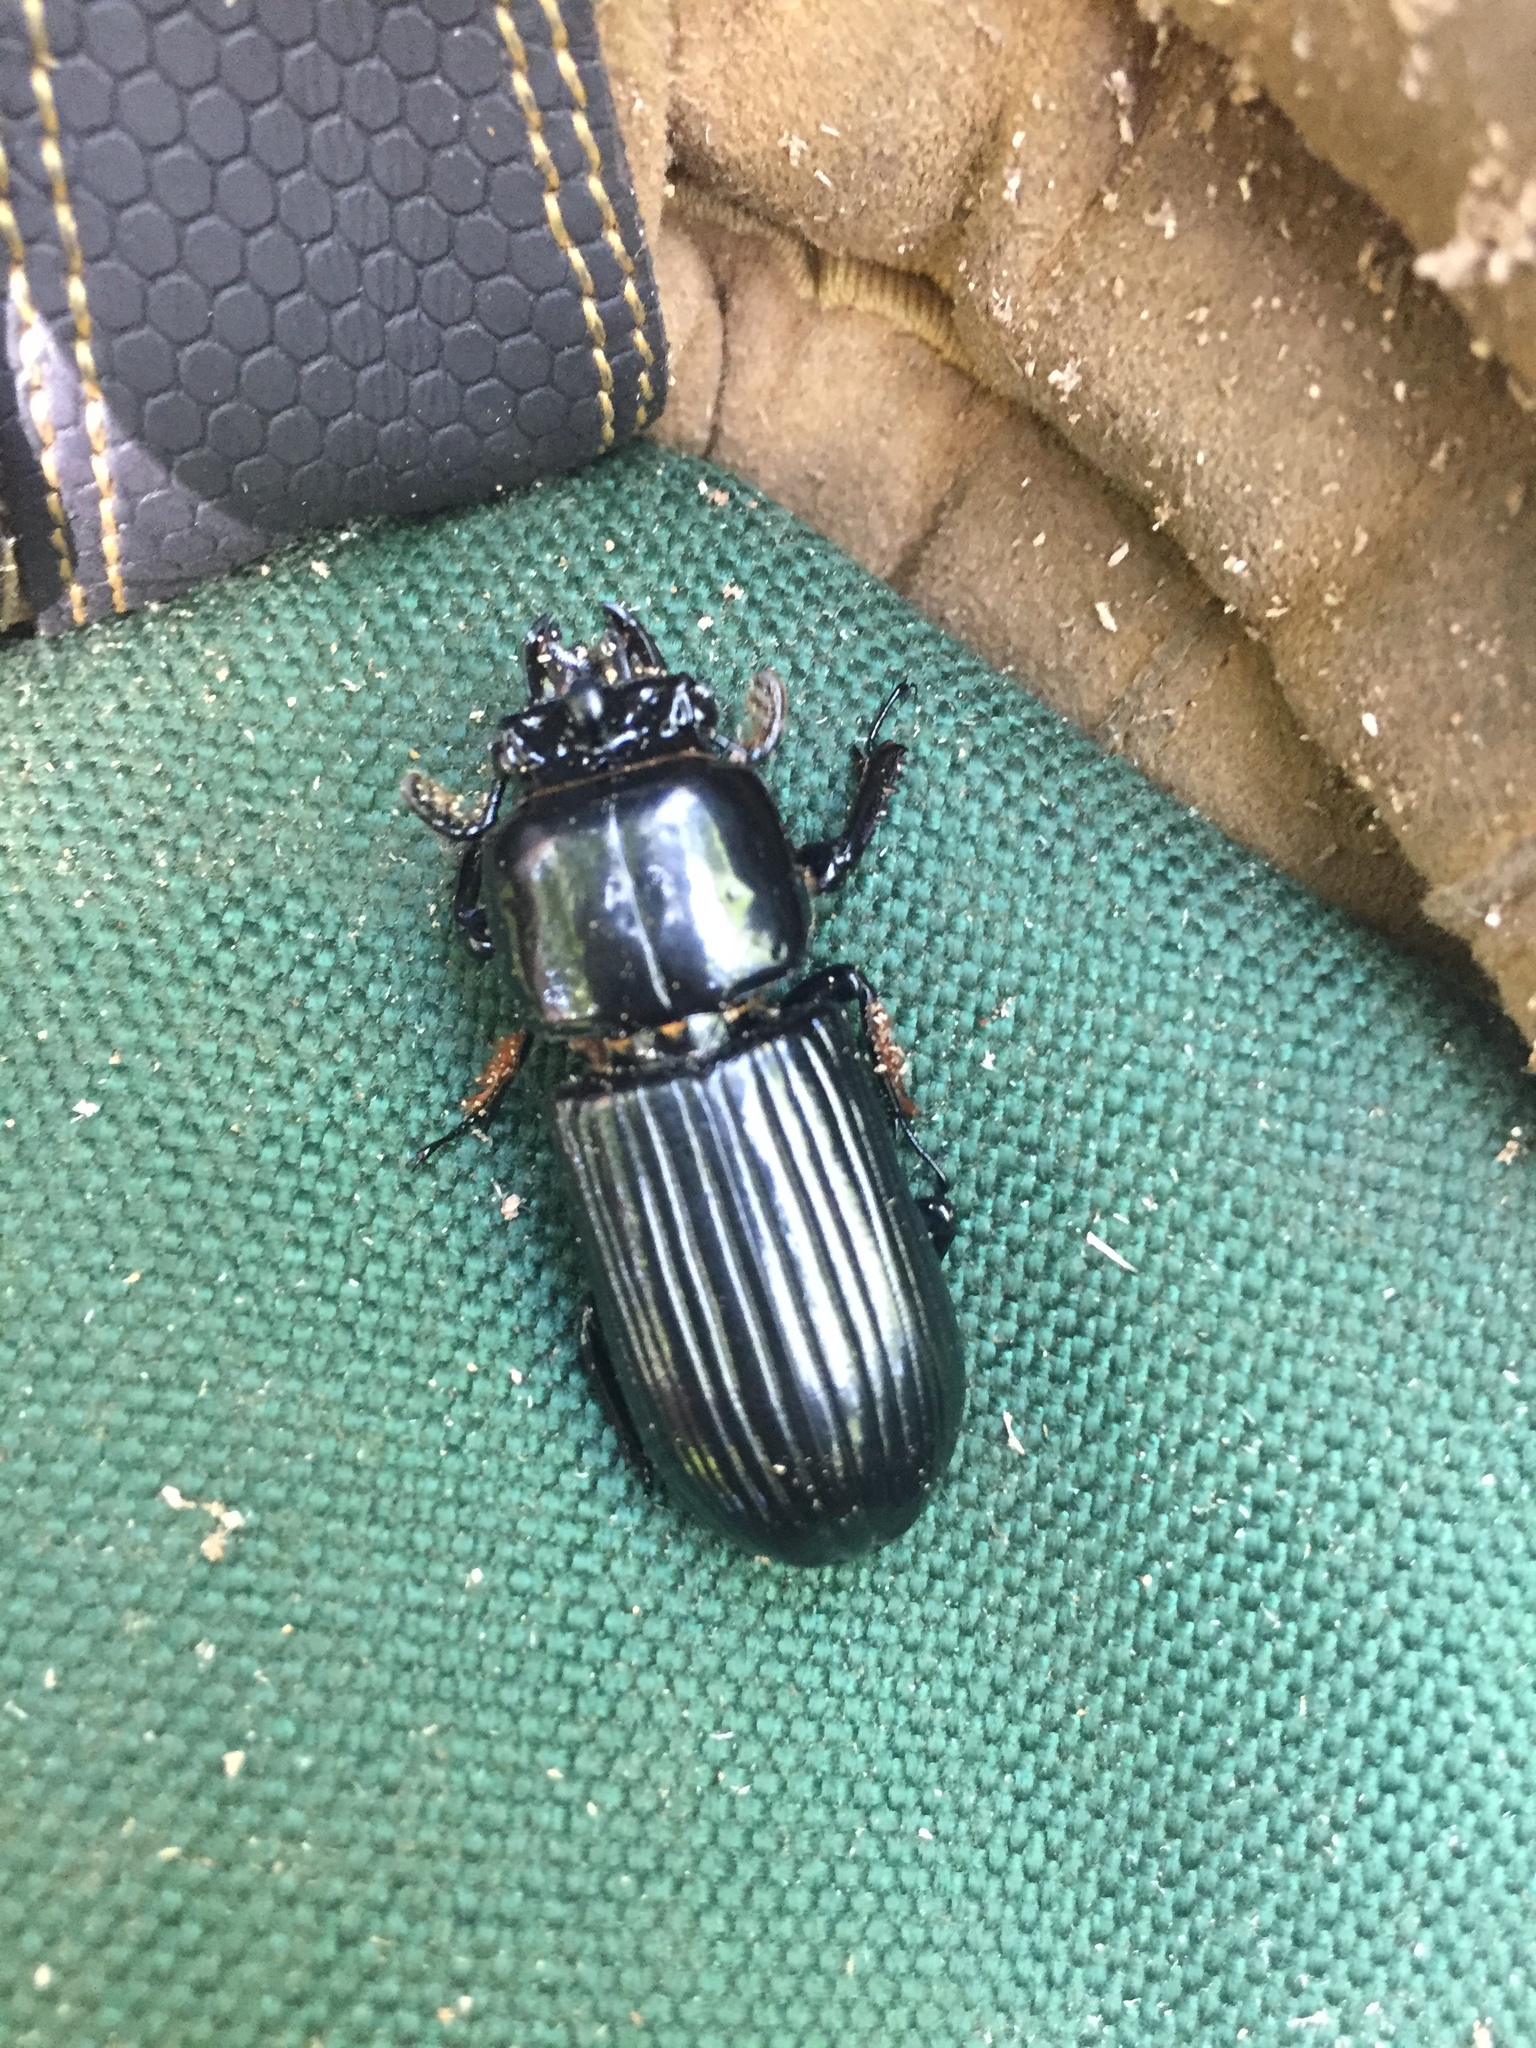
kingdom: Animalia
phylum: Arthropoda
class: Insecta
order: Coleoptera
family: Passalidae
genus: Odontotaenius
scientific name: Odontotaenius disjunctus
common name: Patent leather beetle
